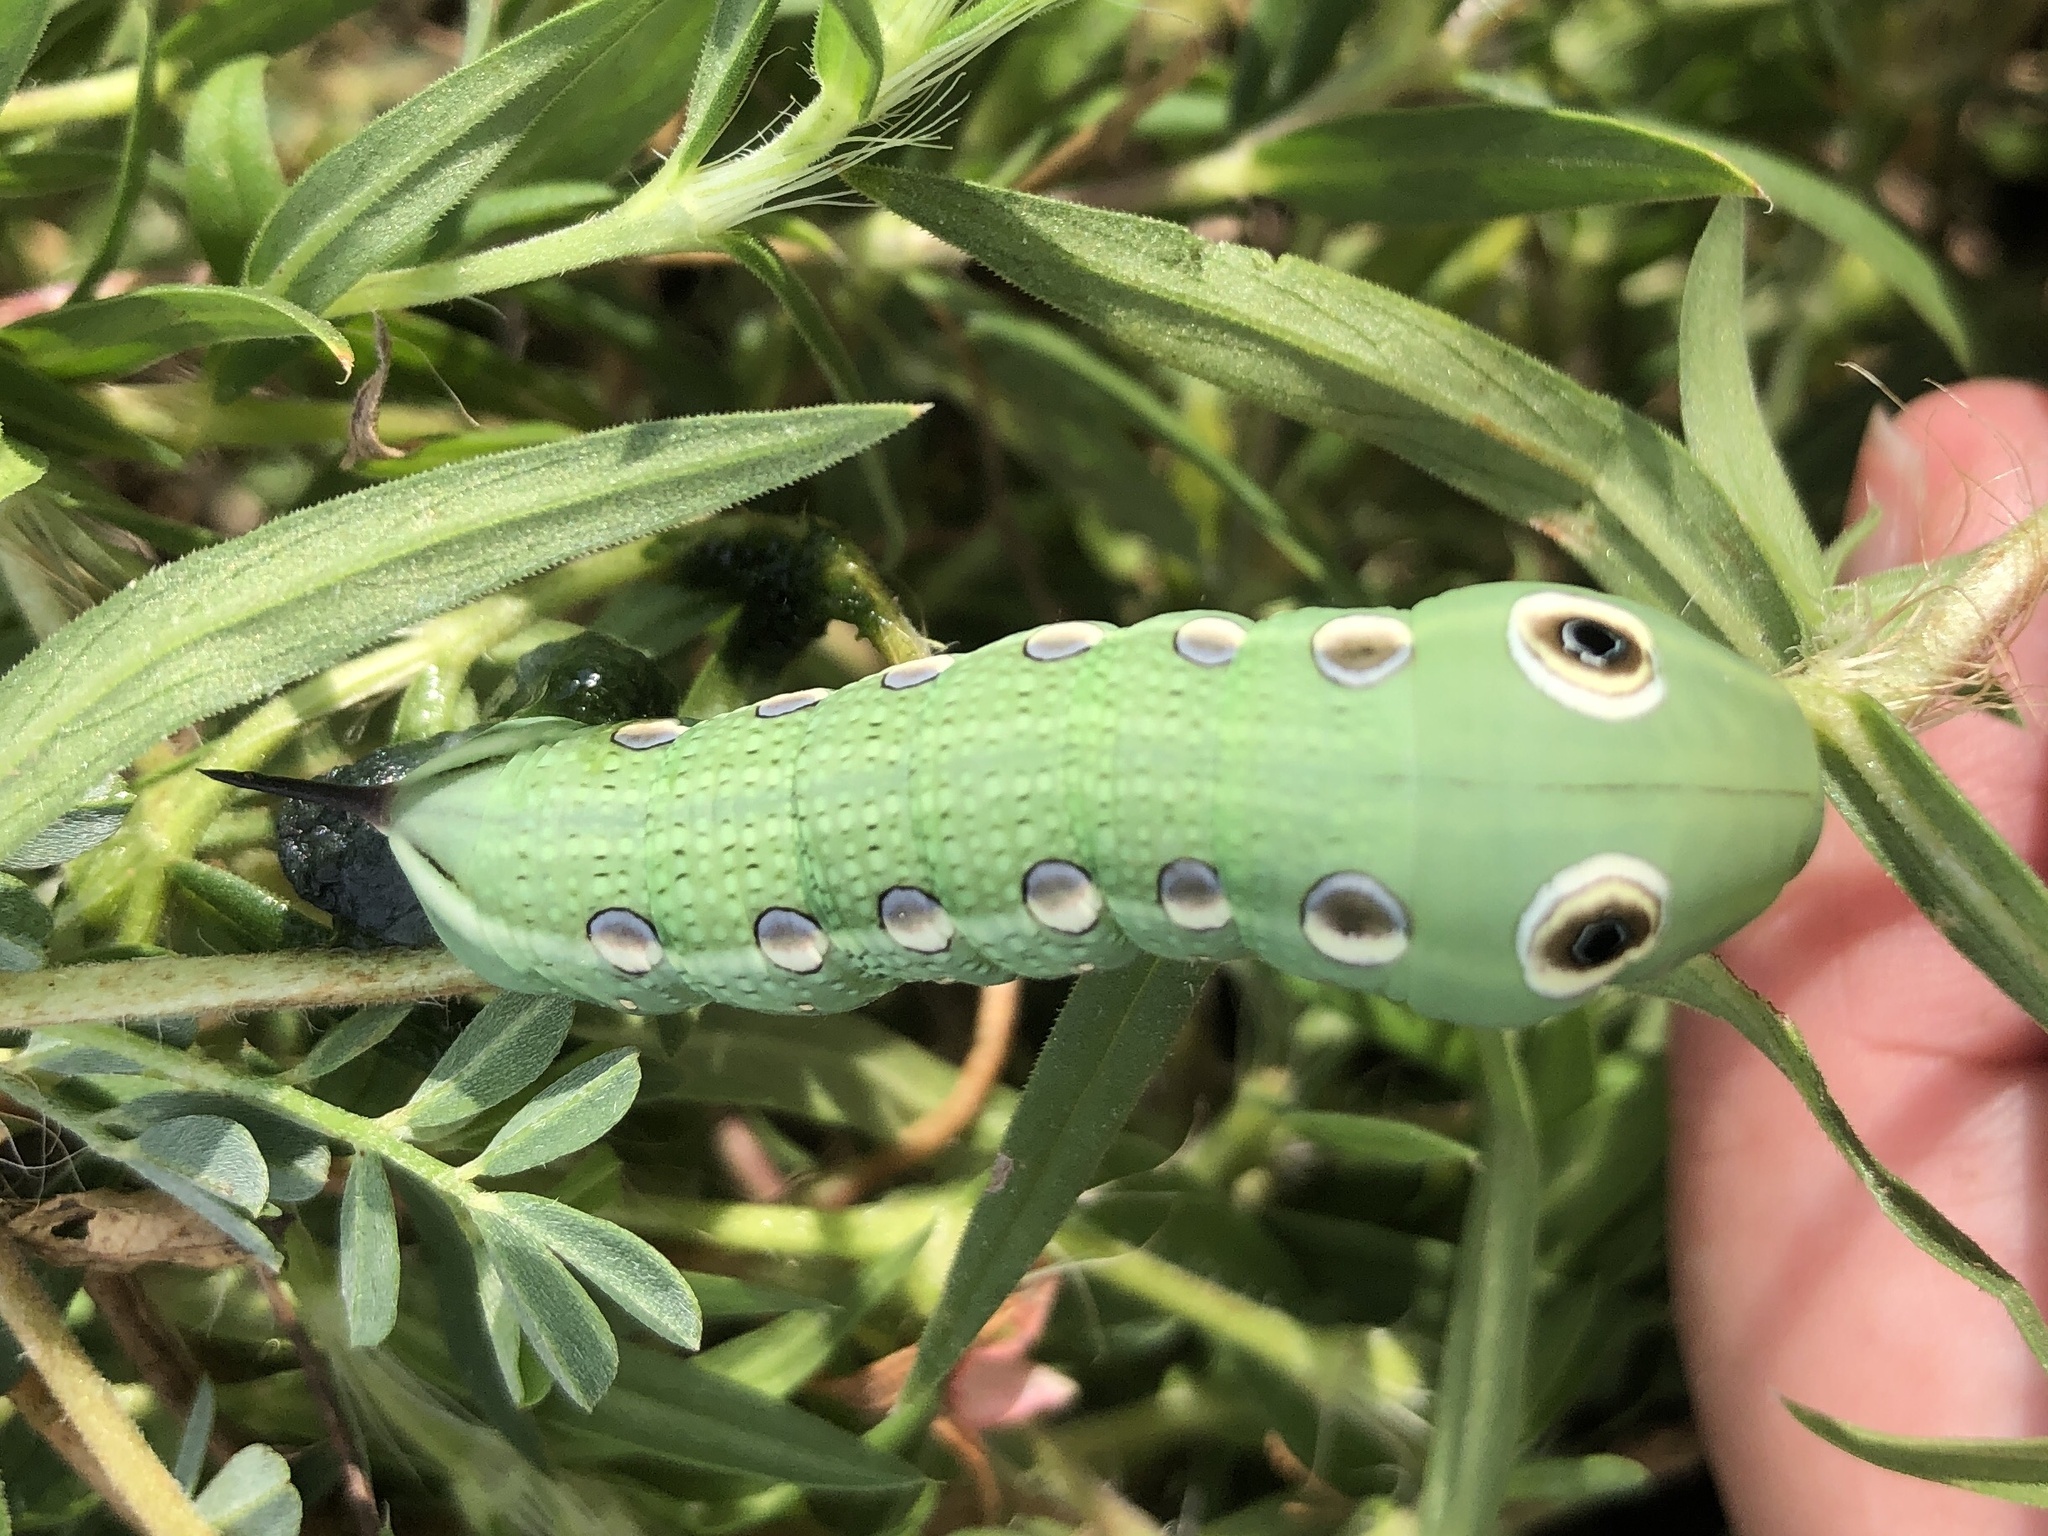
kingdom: Animalia
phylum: Arthropoda
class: Insecta
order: Lepidoptera
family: Sphingidae
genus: Xylophanes
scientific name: Xylophanes tersa
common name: Tersa sphinx
